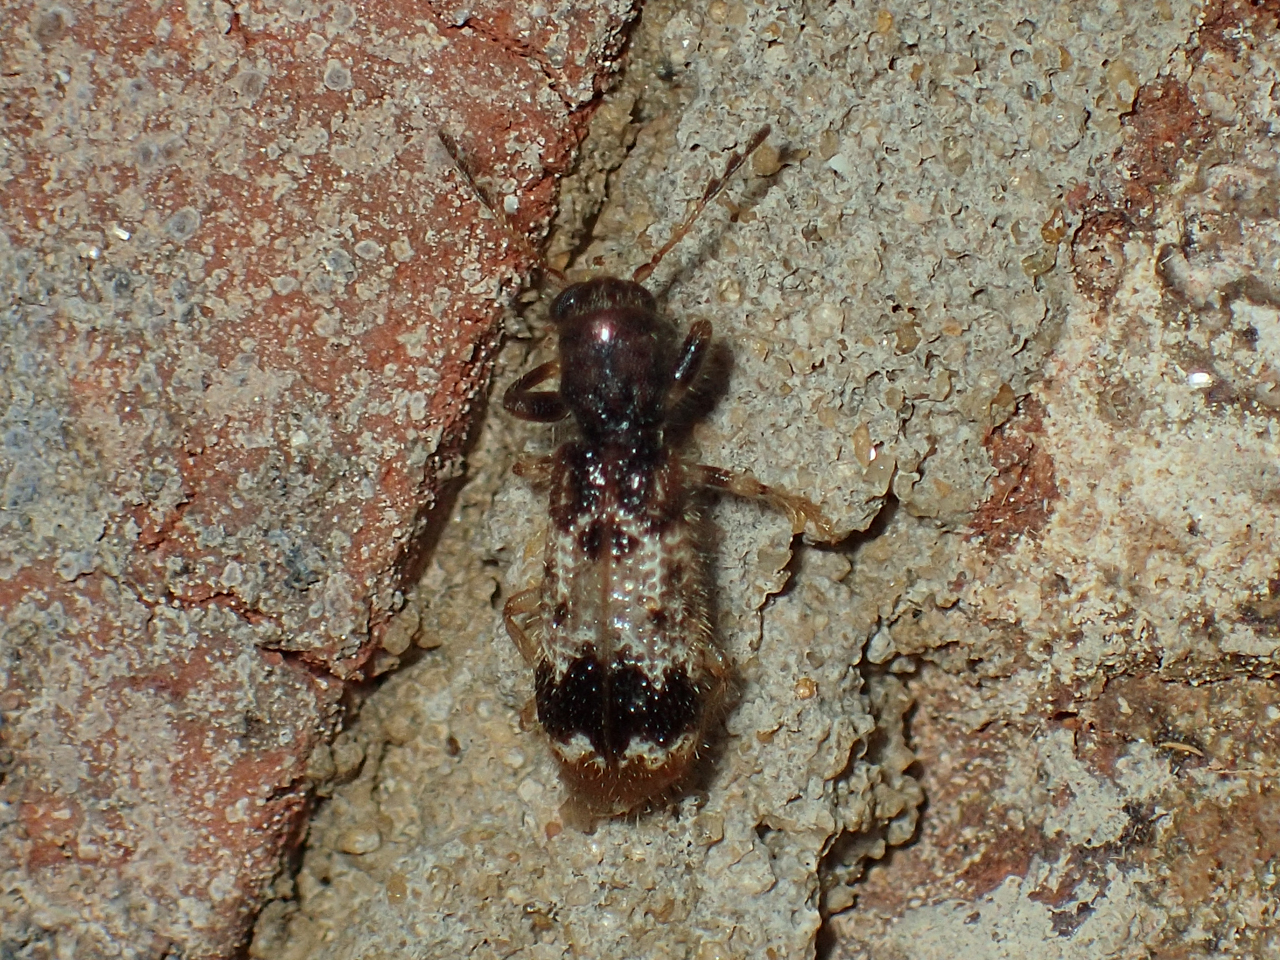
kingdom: Animalia
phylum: Arthropoda
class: Insecta
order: Coleoptera
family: Cleridae
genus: Pelonium
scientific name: Pelonium leucophaeum
